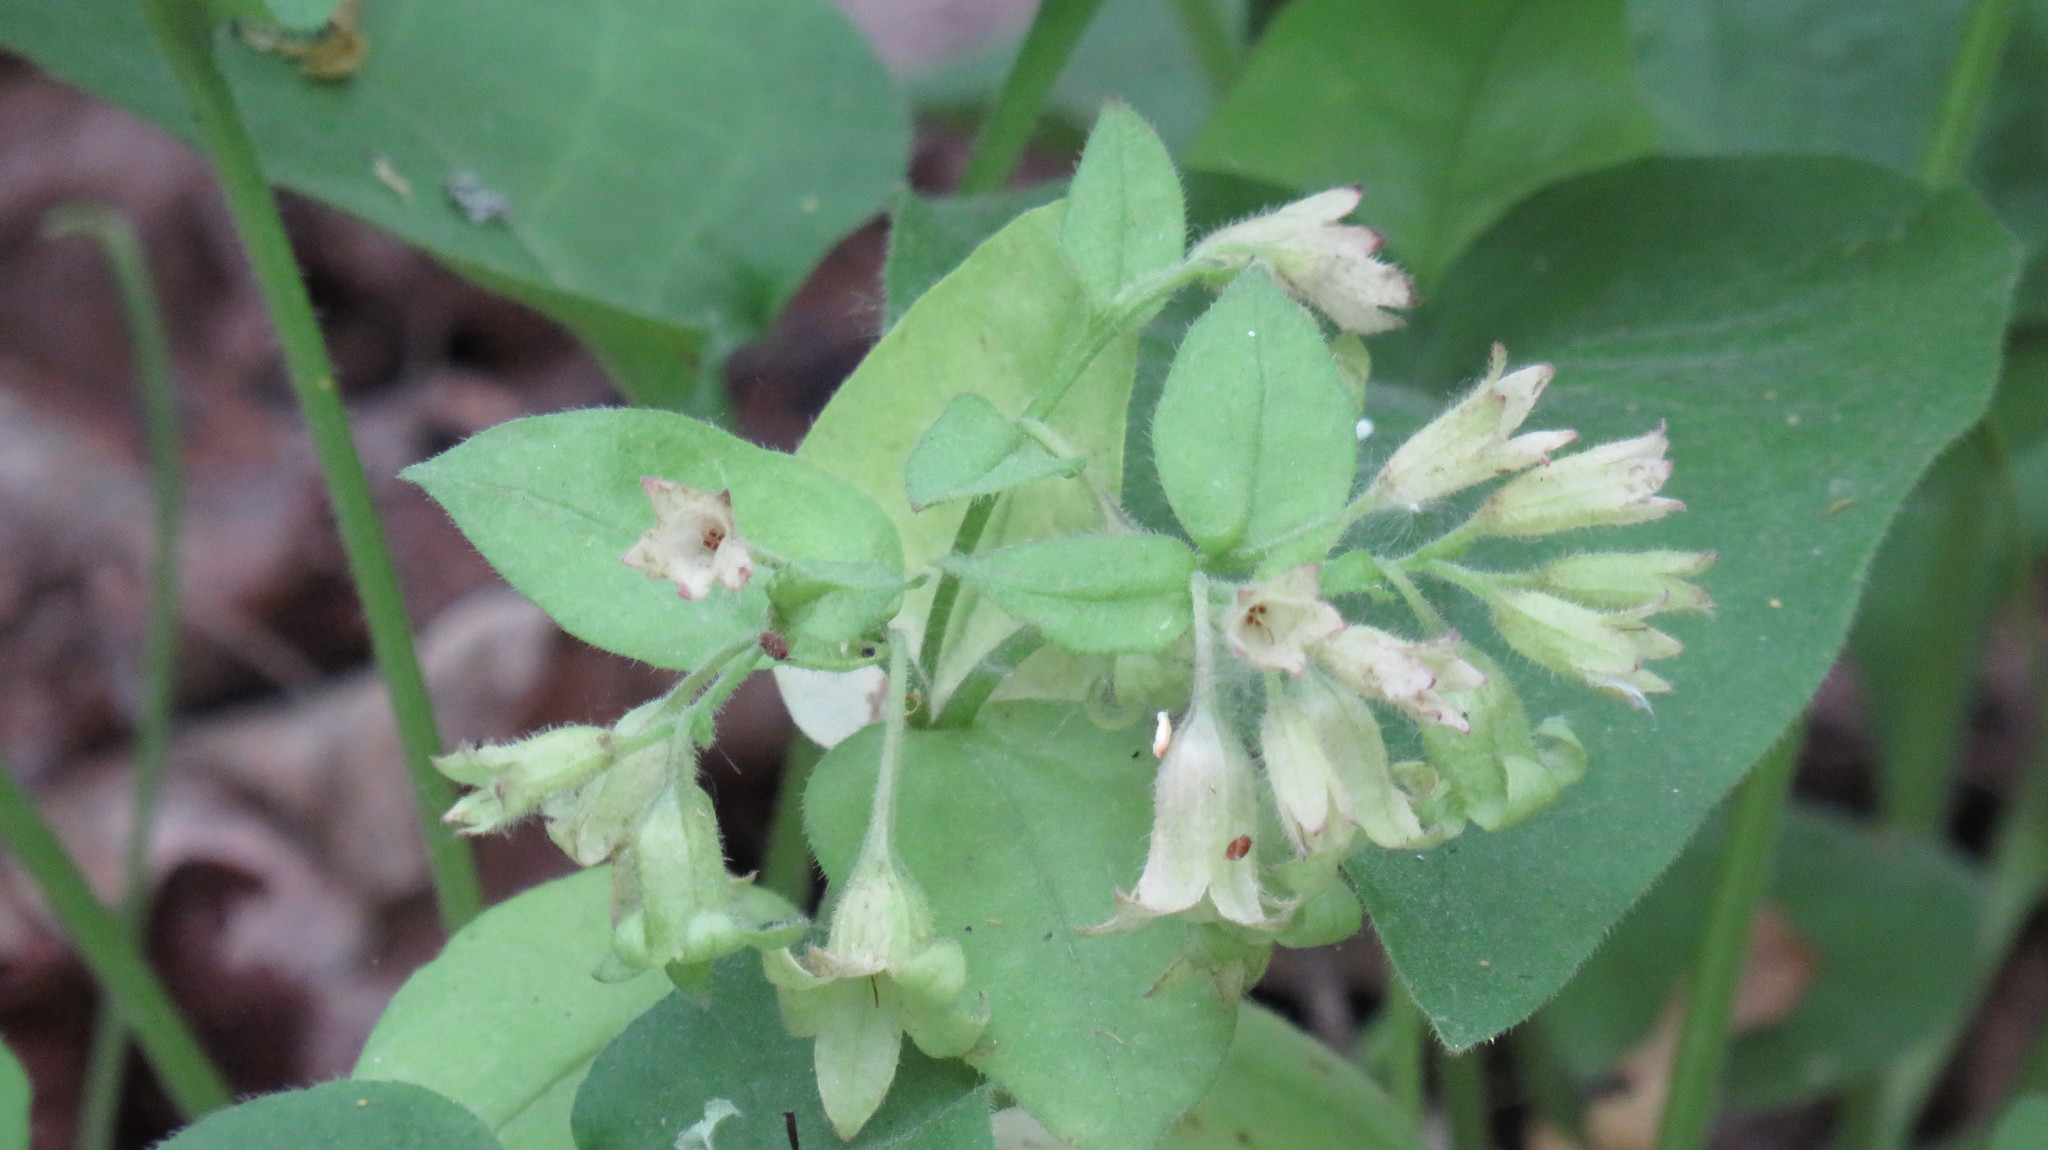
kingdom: Plantae
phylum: Tracheophyta
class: Magnoliopsida
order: Boraginales
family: Boraginaceae
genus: Pulmonaria
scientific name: Pulmonaria obscura
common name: Suffolk lungwort
